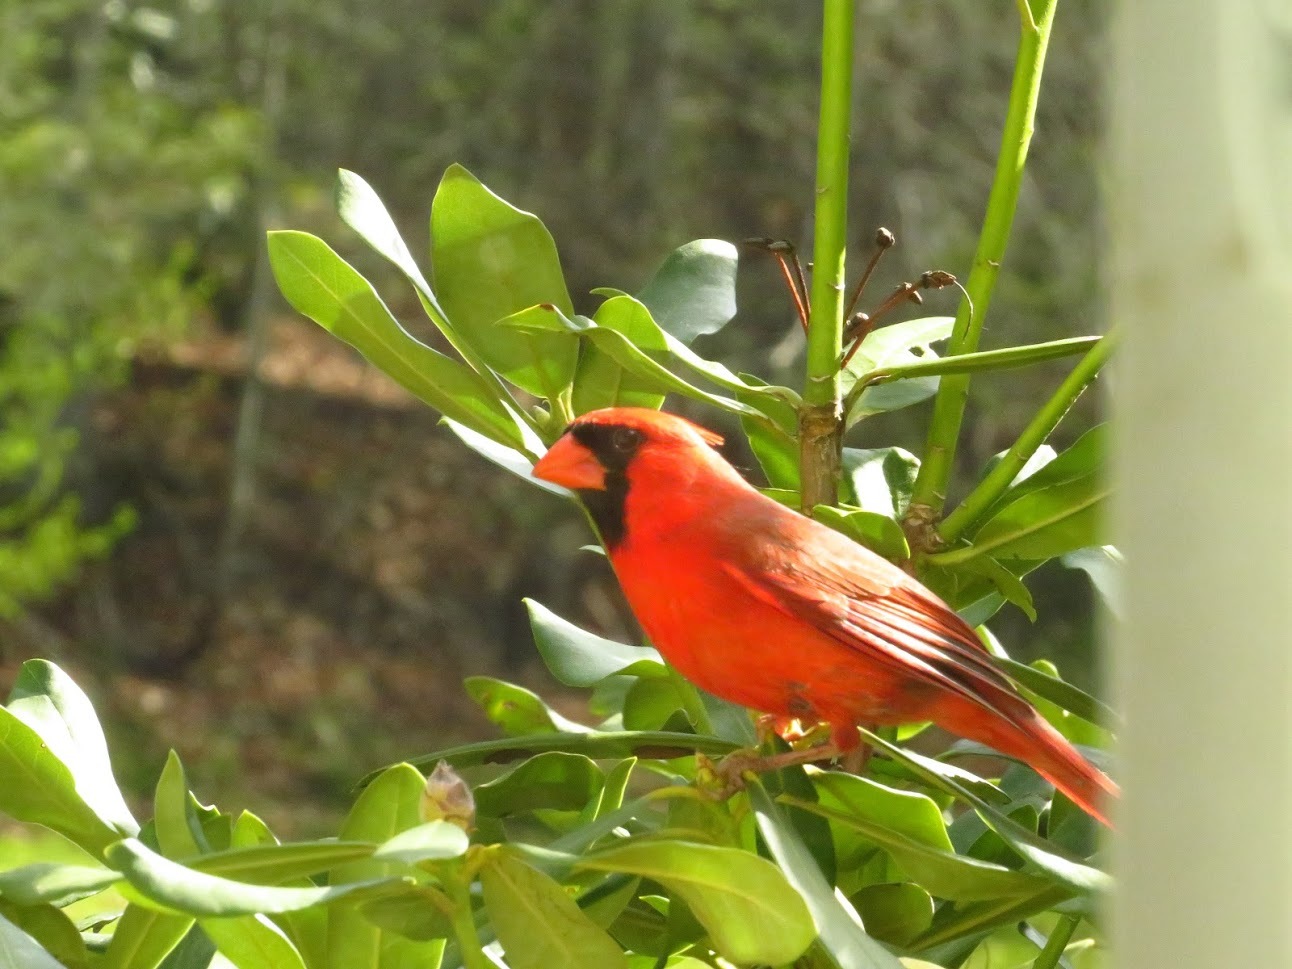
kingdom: Animalia
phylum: Chordata
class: Aves
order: Passeriformes
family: Cardinalidae
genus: Cardinalis
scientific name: Cardinalis cardinalis
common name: Northern cardinal
